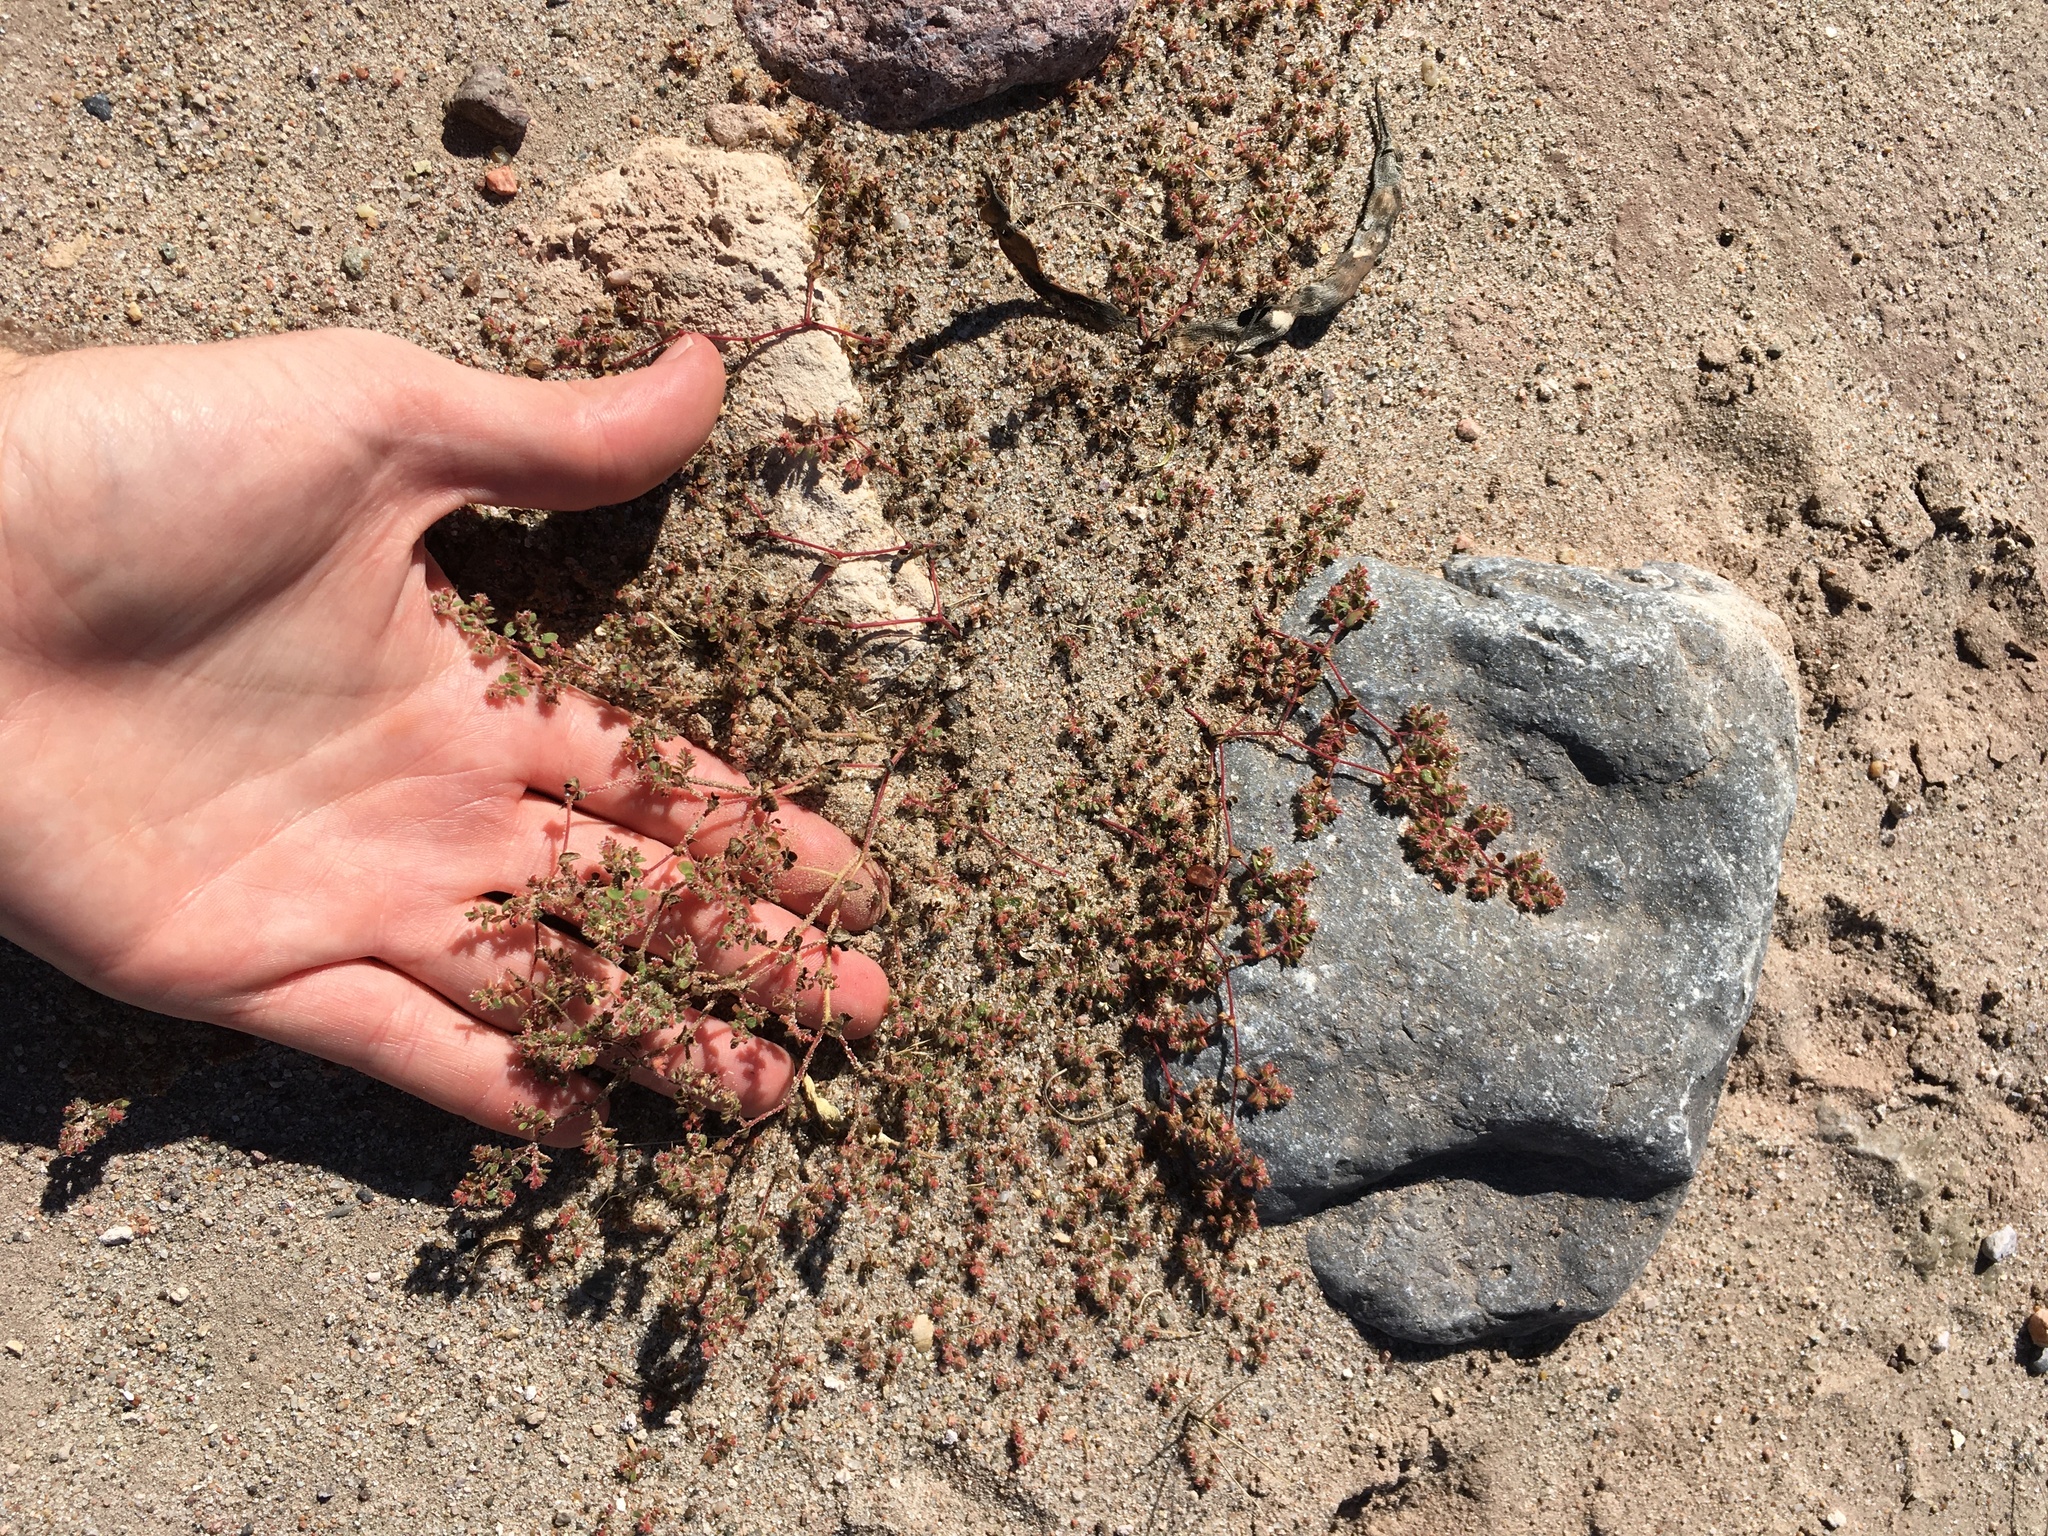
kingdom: Plantae
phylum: Tracheophyta
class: Magnoliopsida
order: Malpighiales
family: Euphorbiaceae
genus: Euphorbia
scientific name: Euphorbia setiloba
